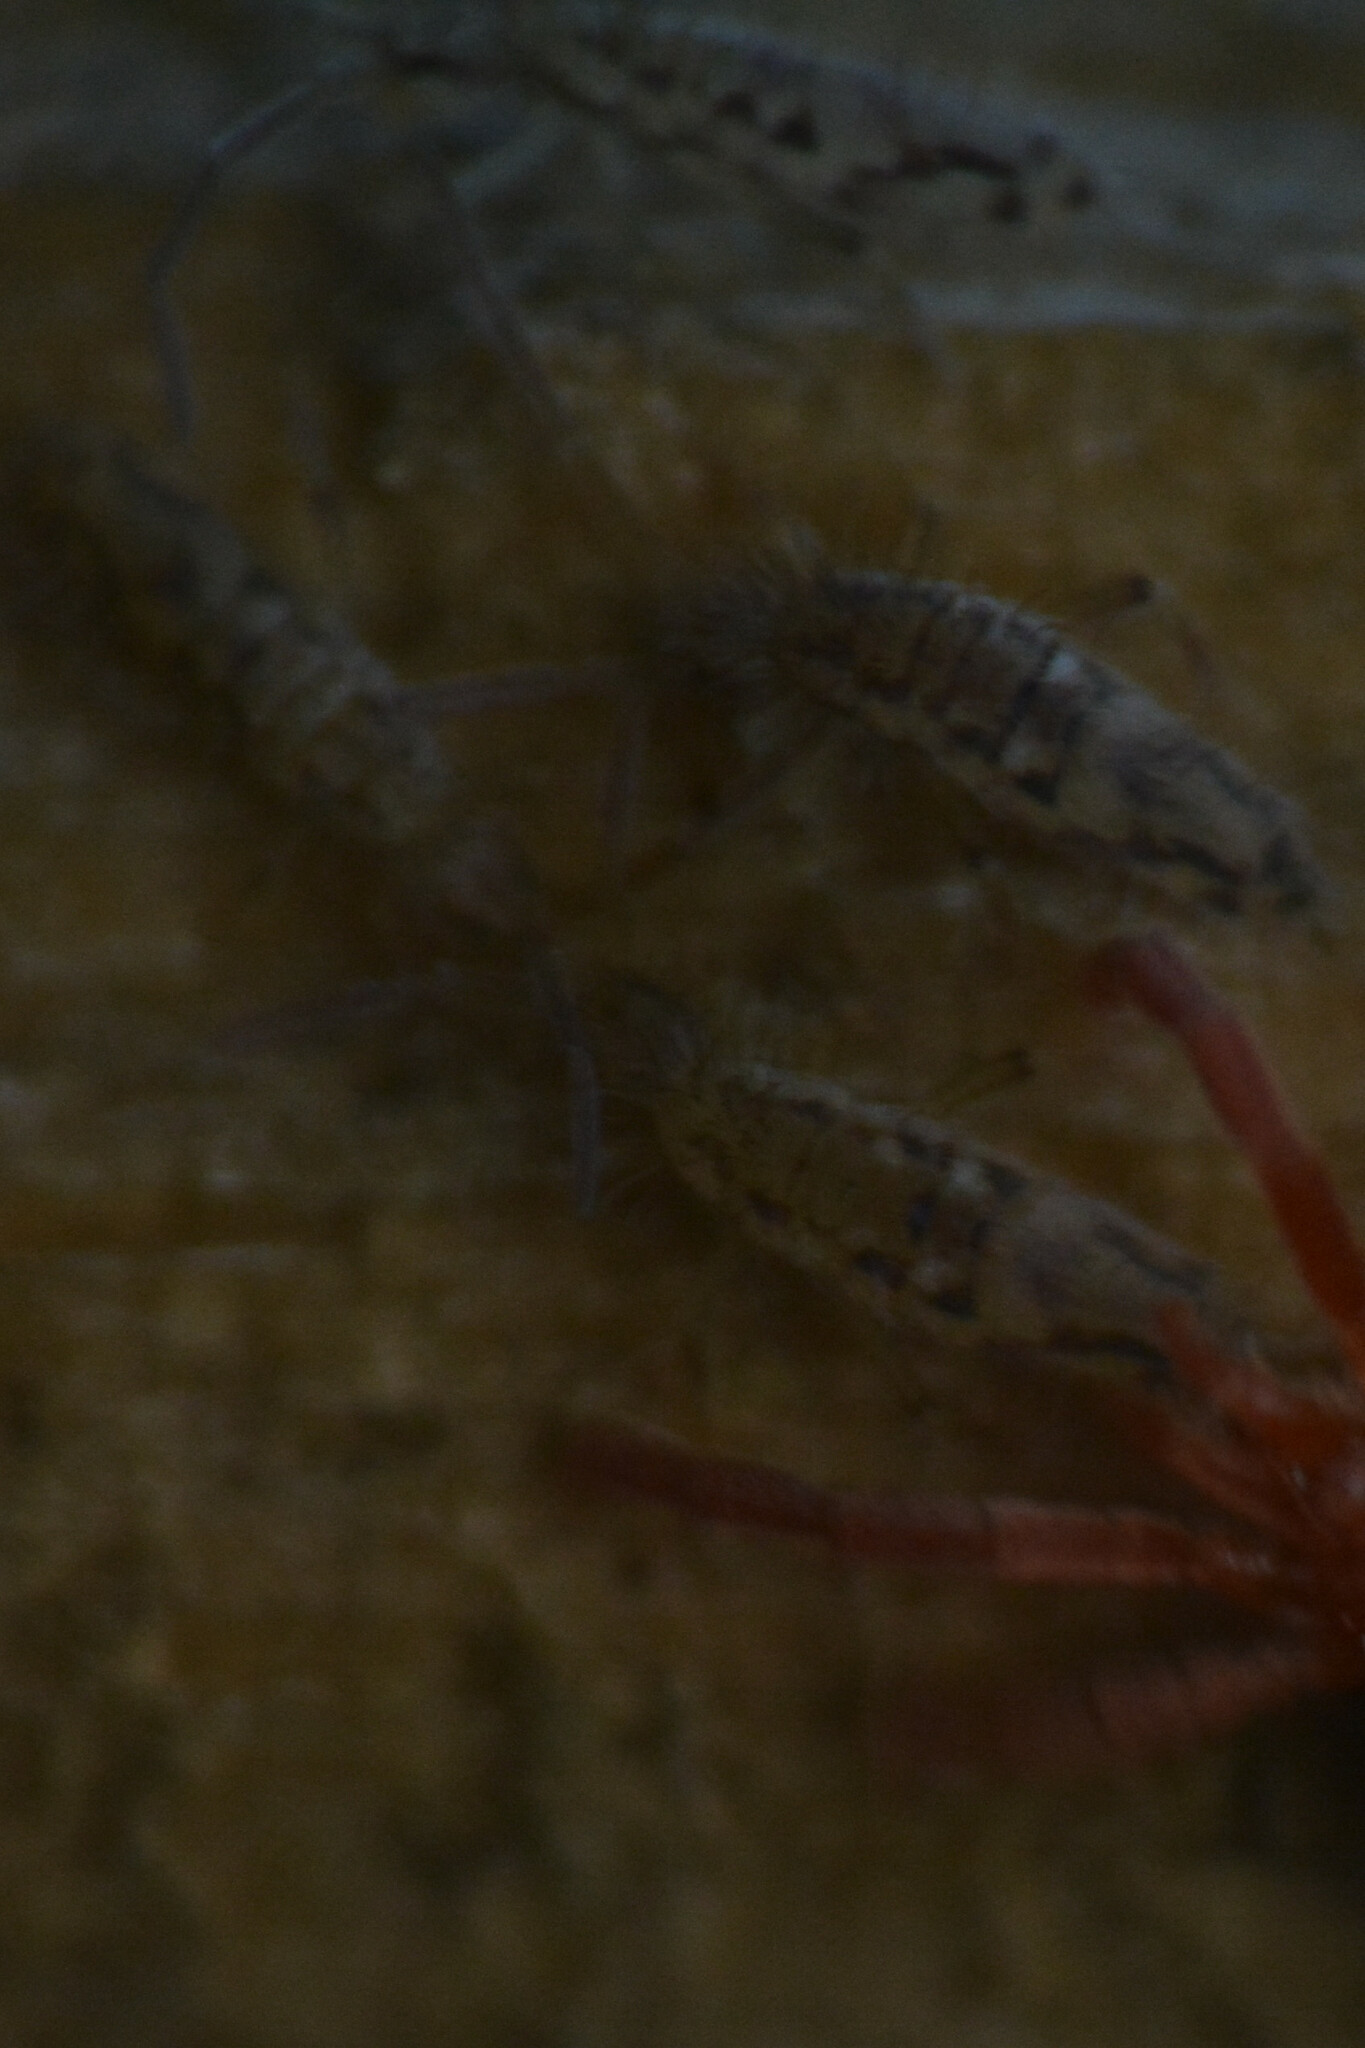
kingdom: Animalia
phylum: Arthropoda
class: Collembola
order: Entomobryomorpha
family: Entomobryidae
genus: Entomobrya
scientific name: Entomobrya intermedia
